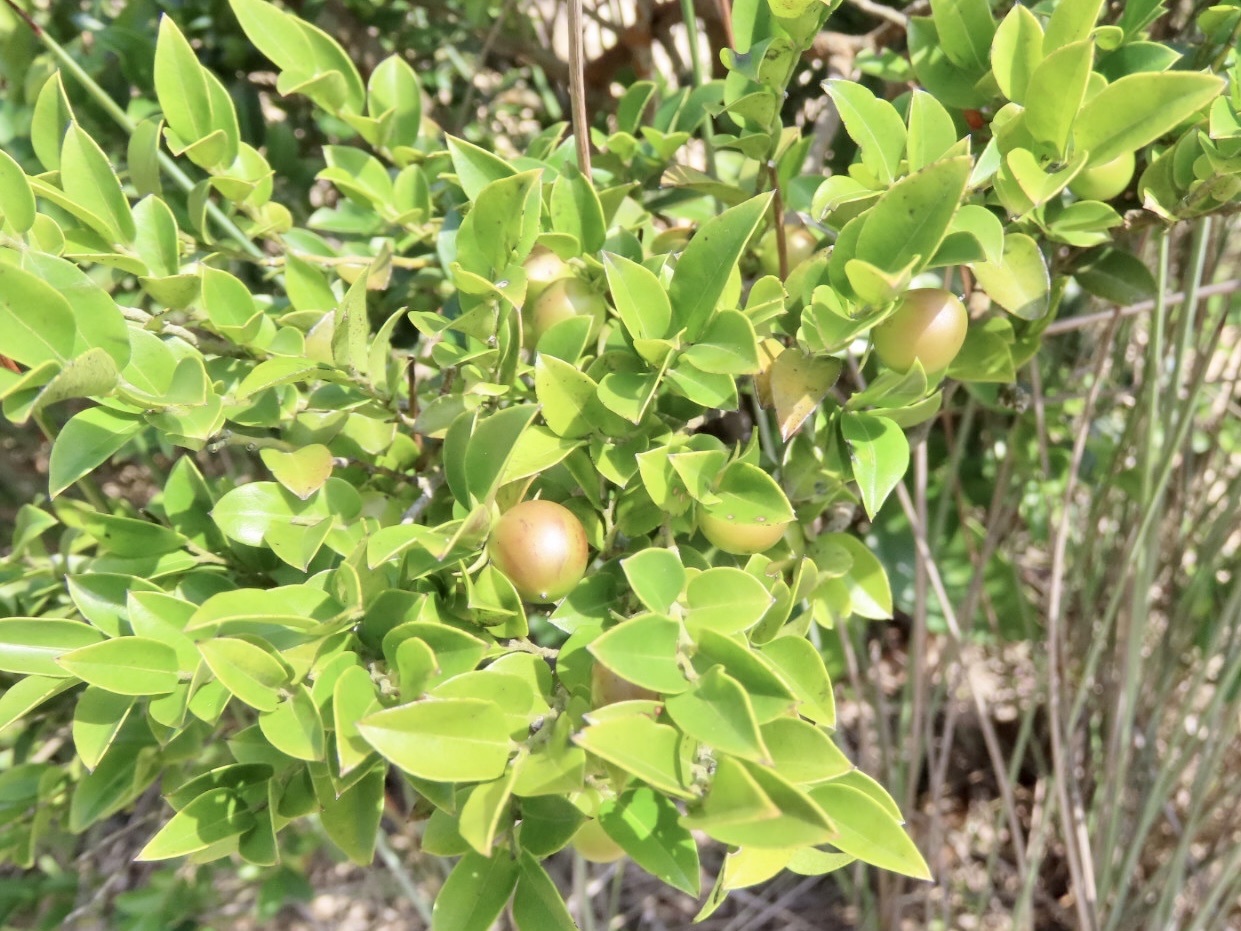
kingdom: Plantae
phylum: Tracheophyta
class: Magnoliopsida
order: Ericales
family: Ebenaceae
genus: Diospyros
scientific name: Diospyros vaccinioides
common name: Small persimmon
